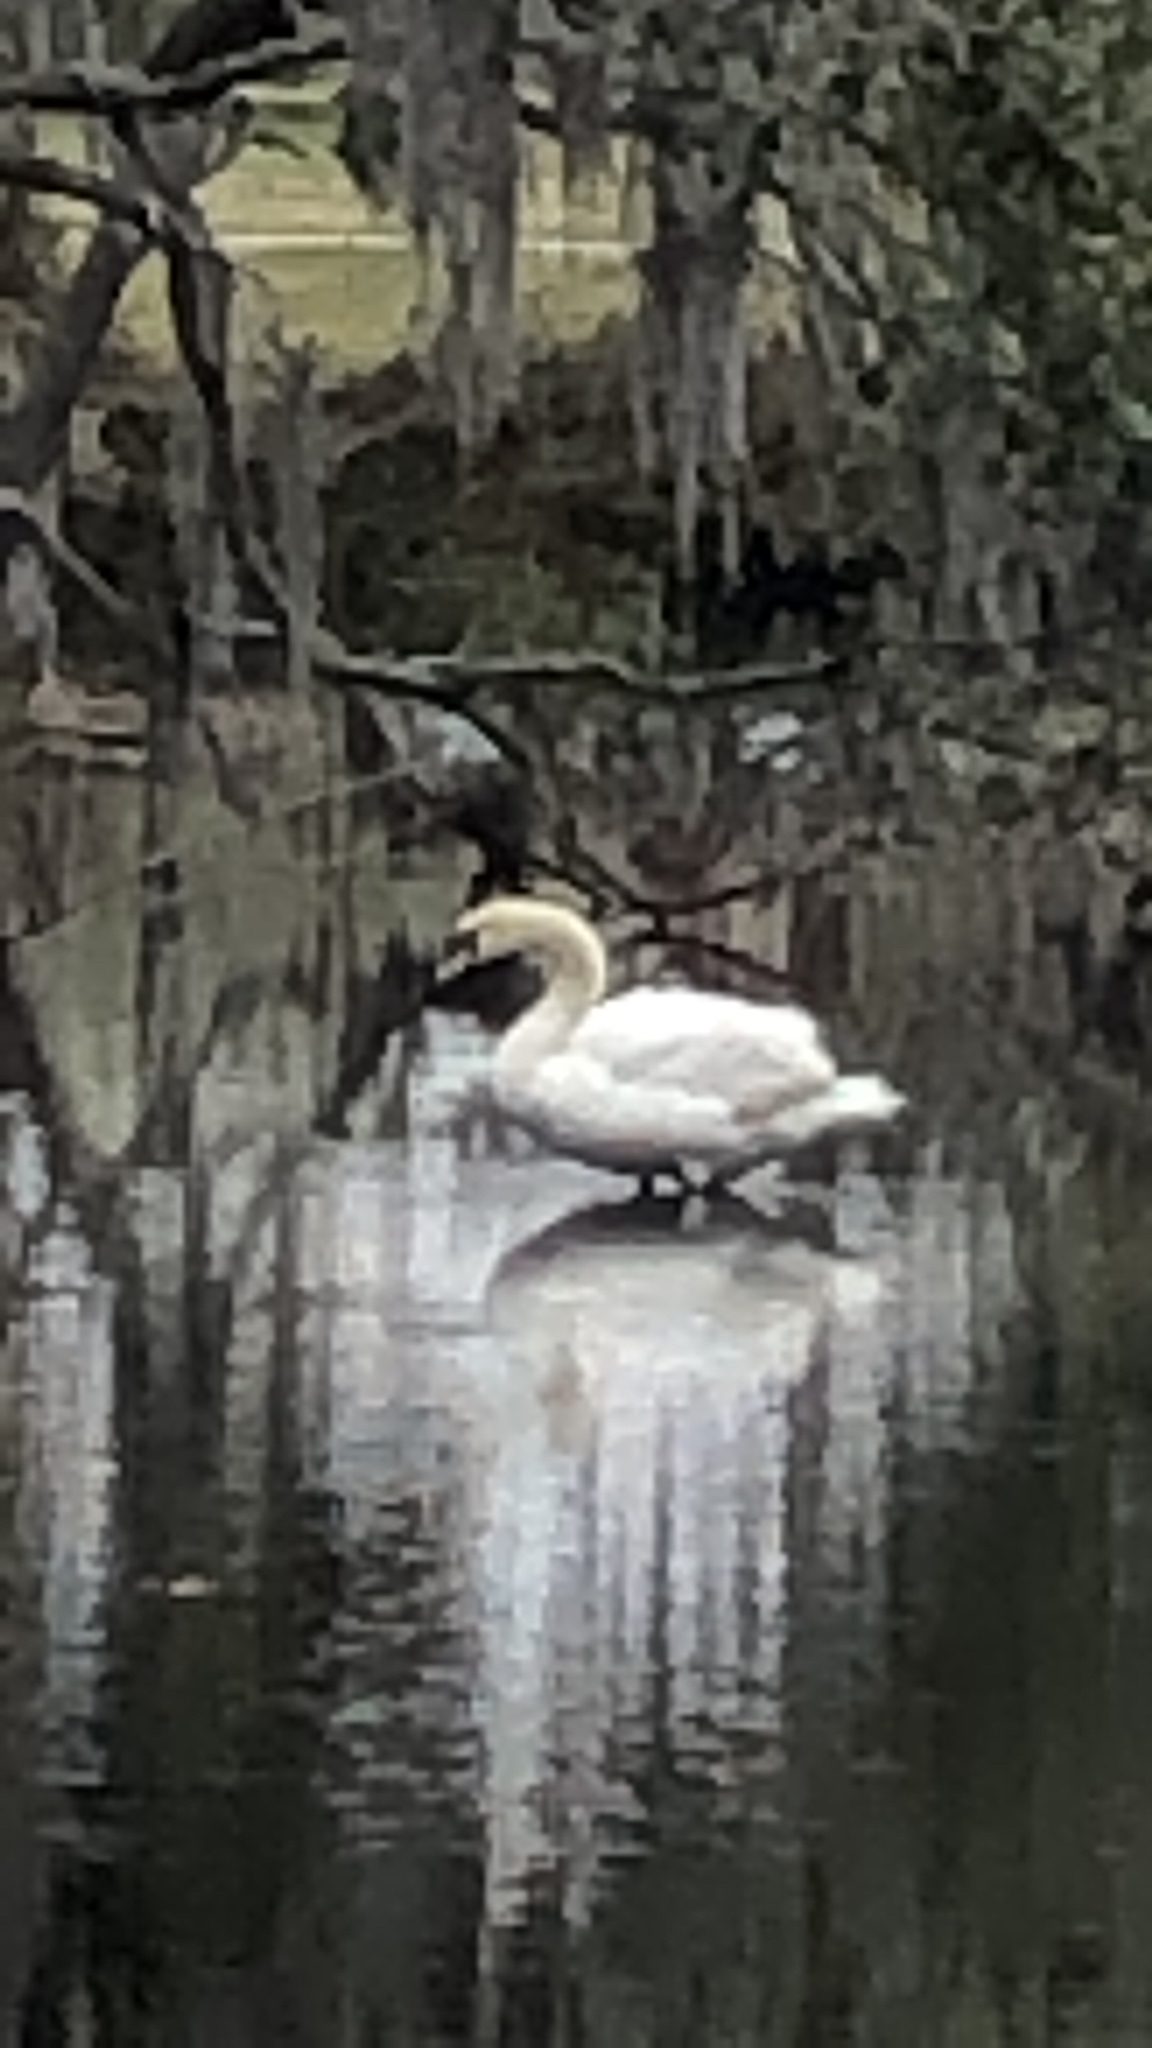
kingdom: Animalia
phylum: Chordata
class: Aves
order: Anseriformes
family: Anatidae
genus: Cygnus
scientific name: Cygnus olor
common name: Mute swan
